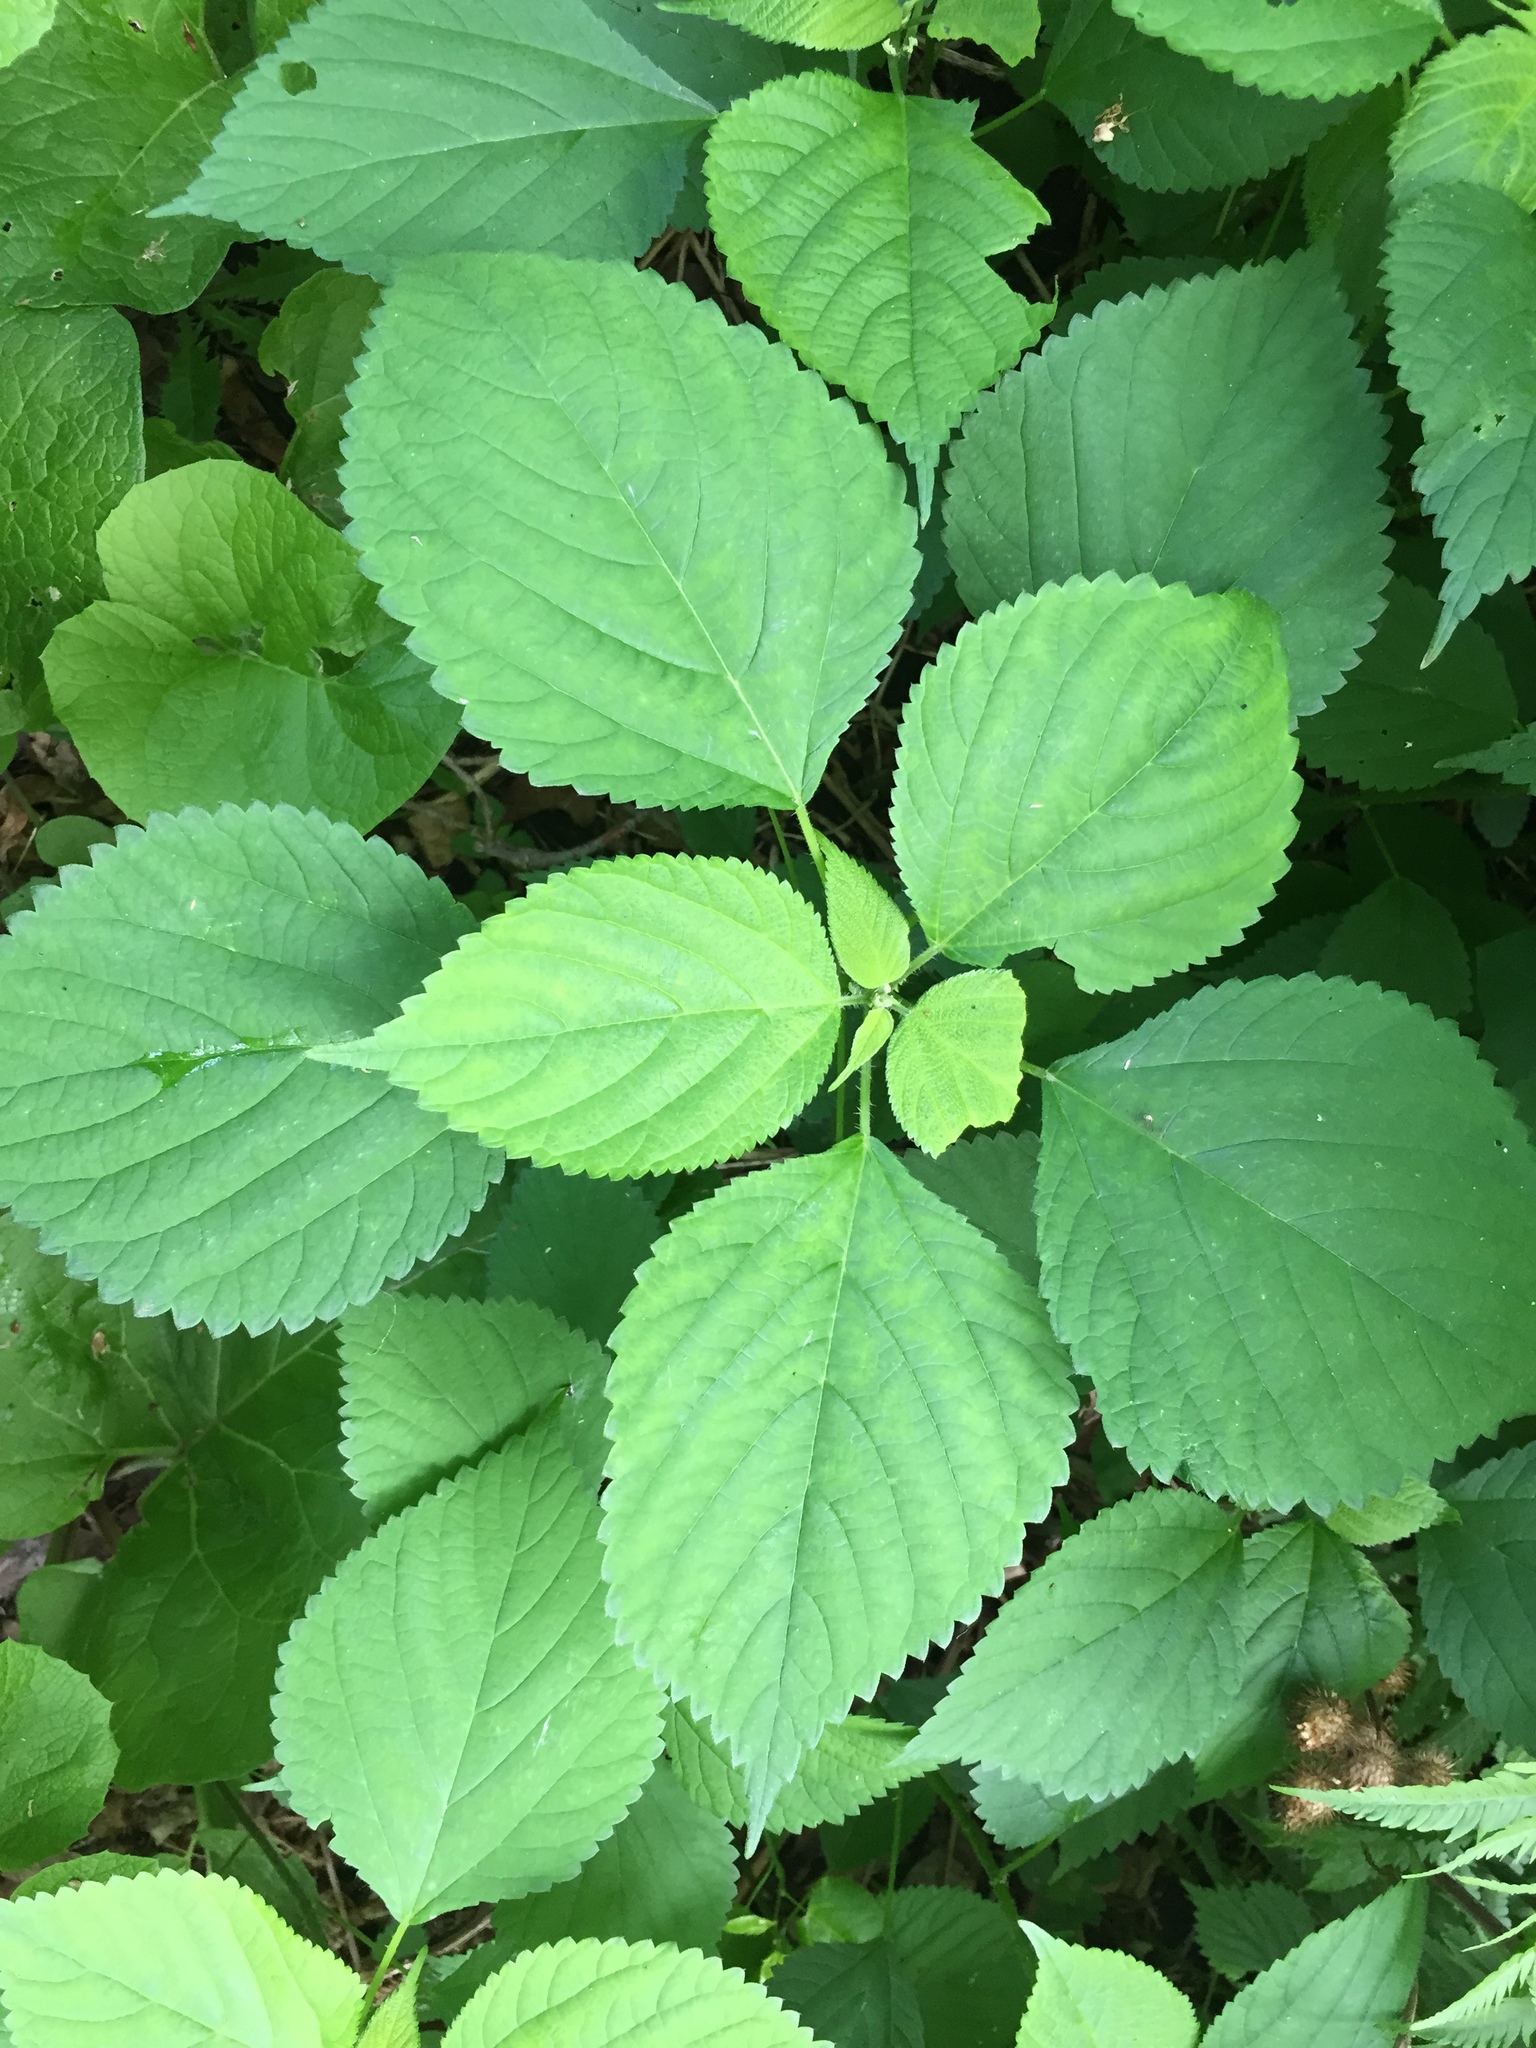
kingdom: Plantae
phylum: Tracheophyta
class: Magnoliopsida
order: Rosales
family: Urticaceae
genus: Laportea
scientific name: Laportea canadensis
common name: Canada nettle
